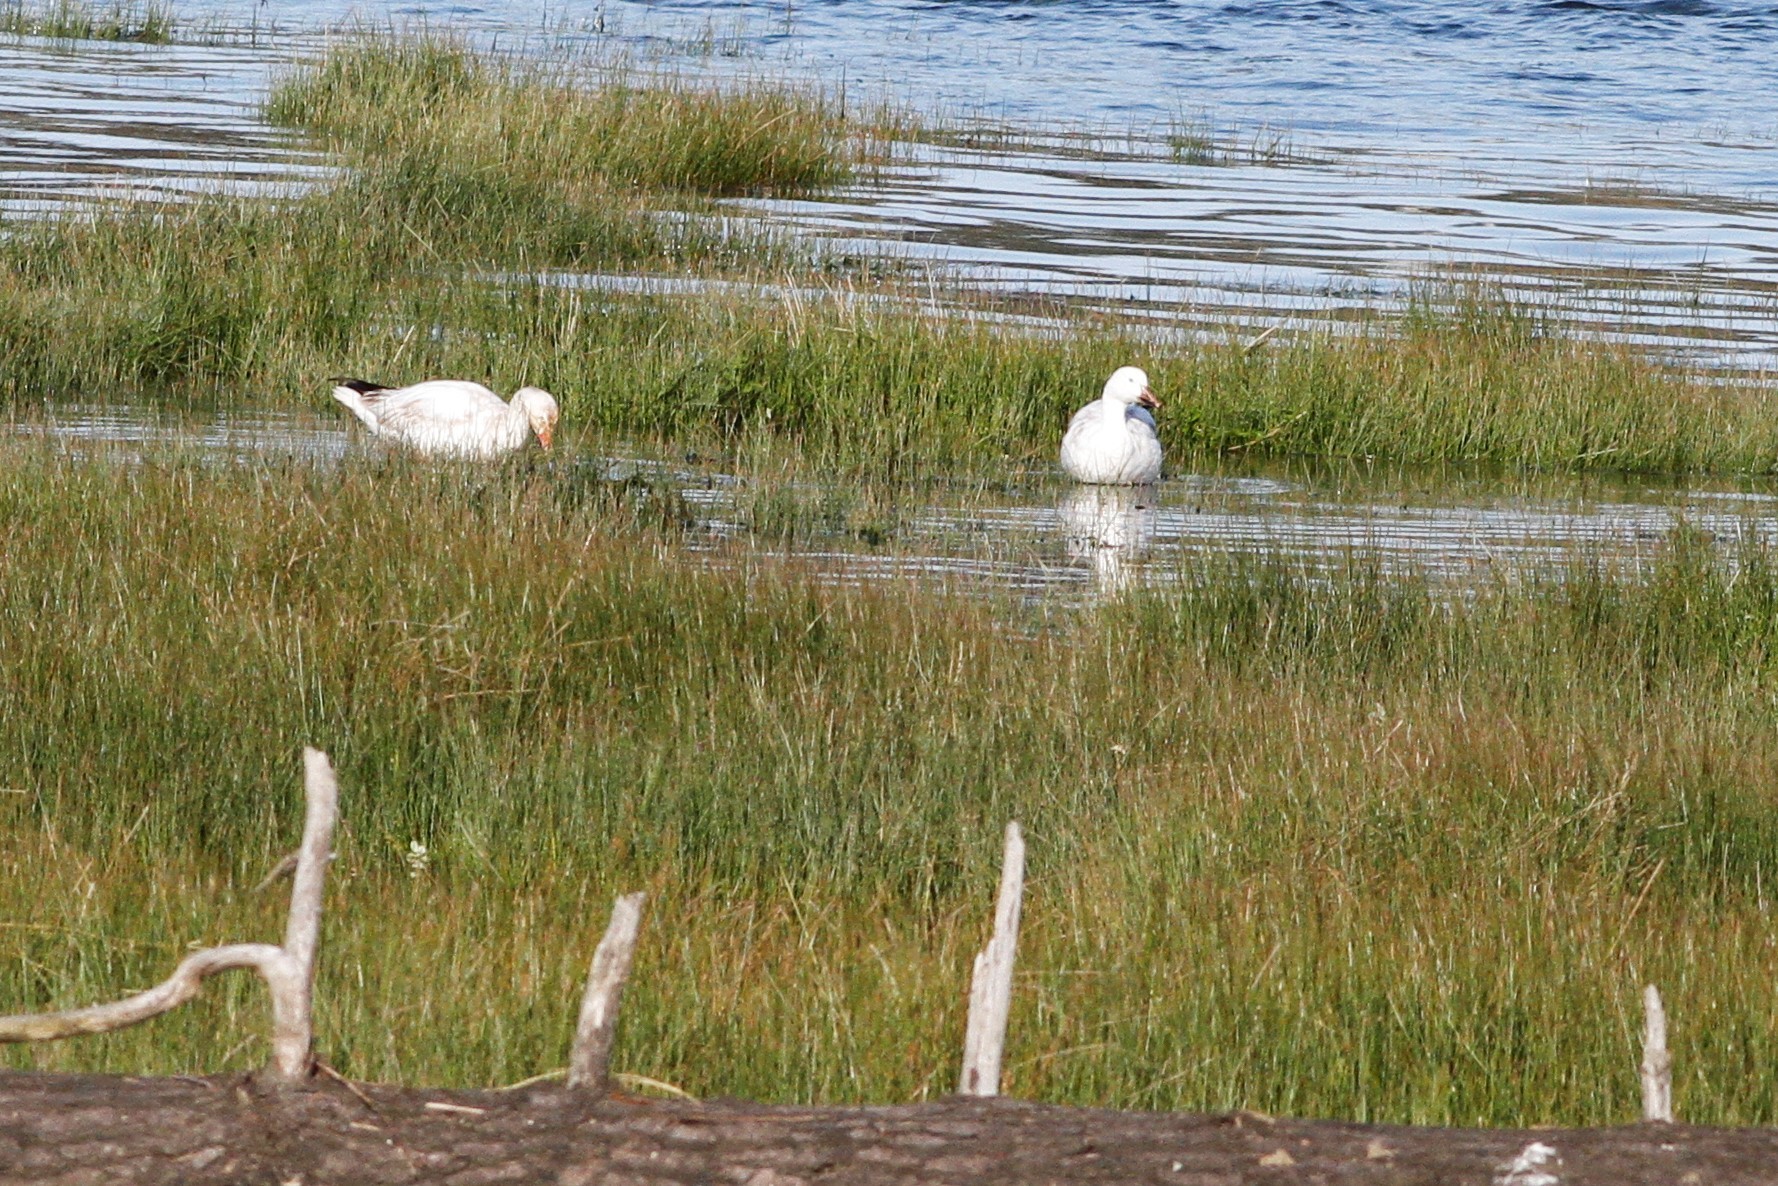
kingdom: Animalia
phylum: Chordata
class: Aves
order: Anseriformes
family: Anatidae
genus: Anser
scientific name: Anser caerulescens
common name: Snow goose
